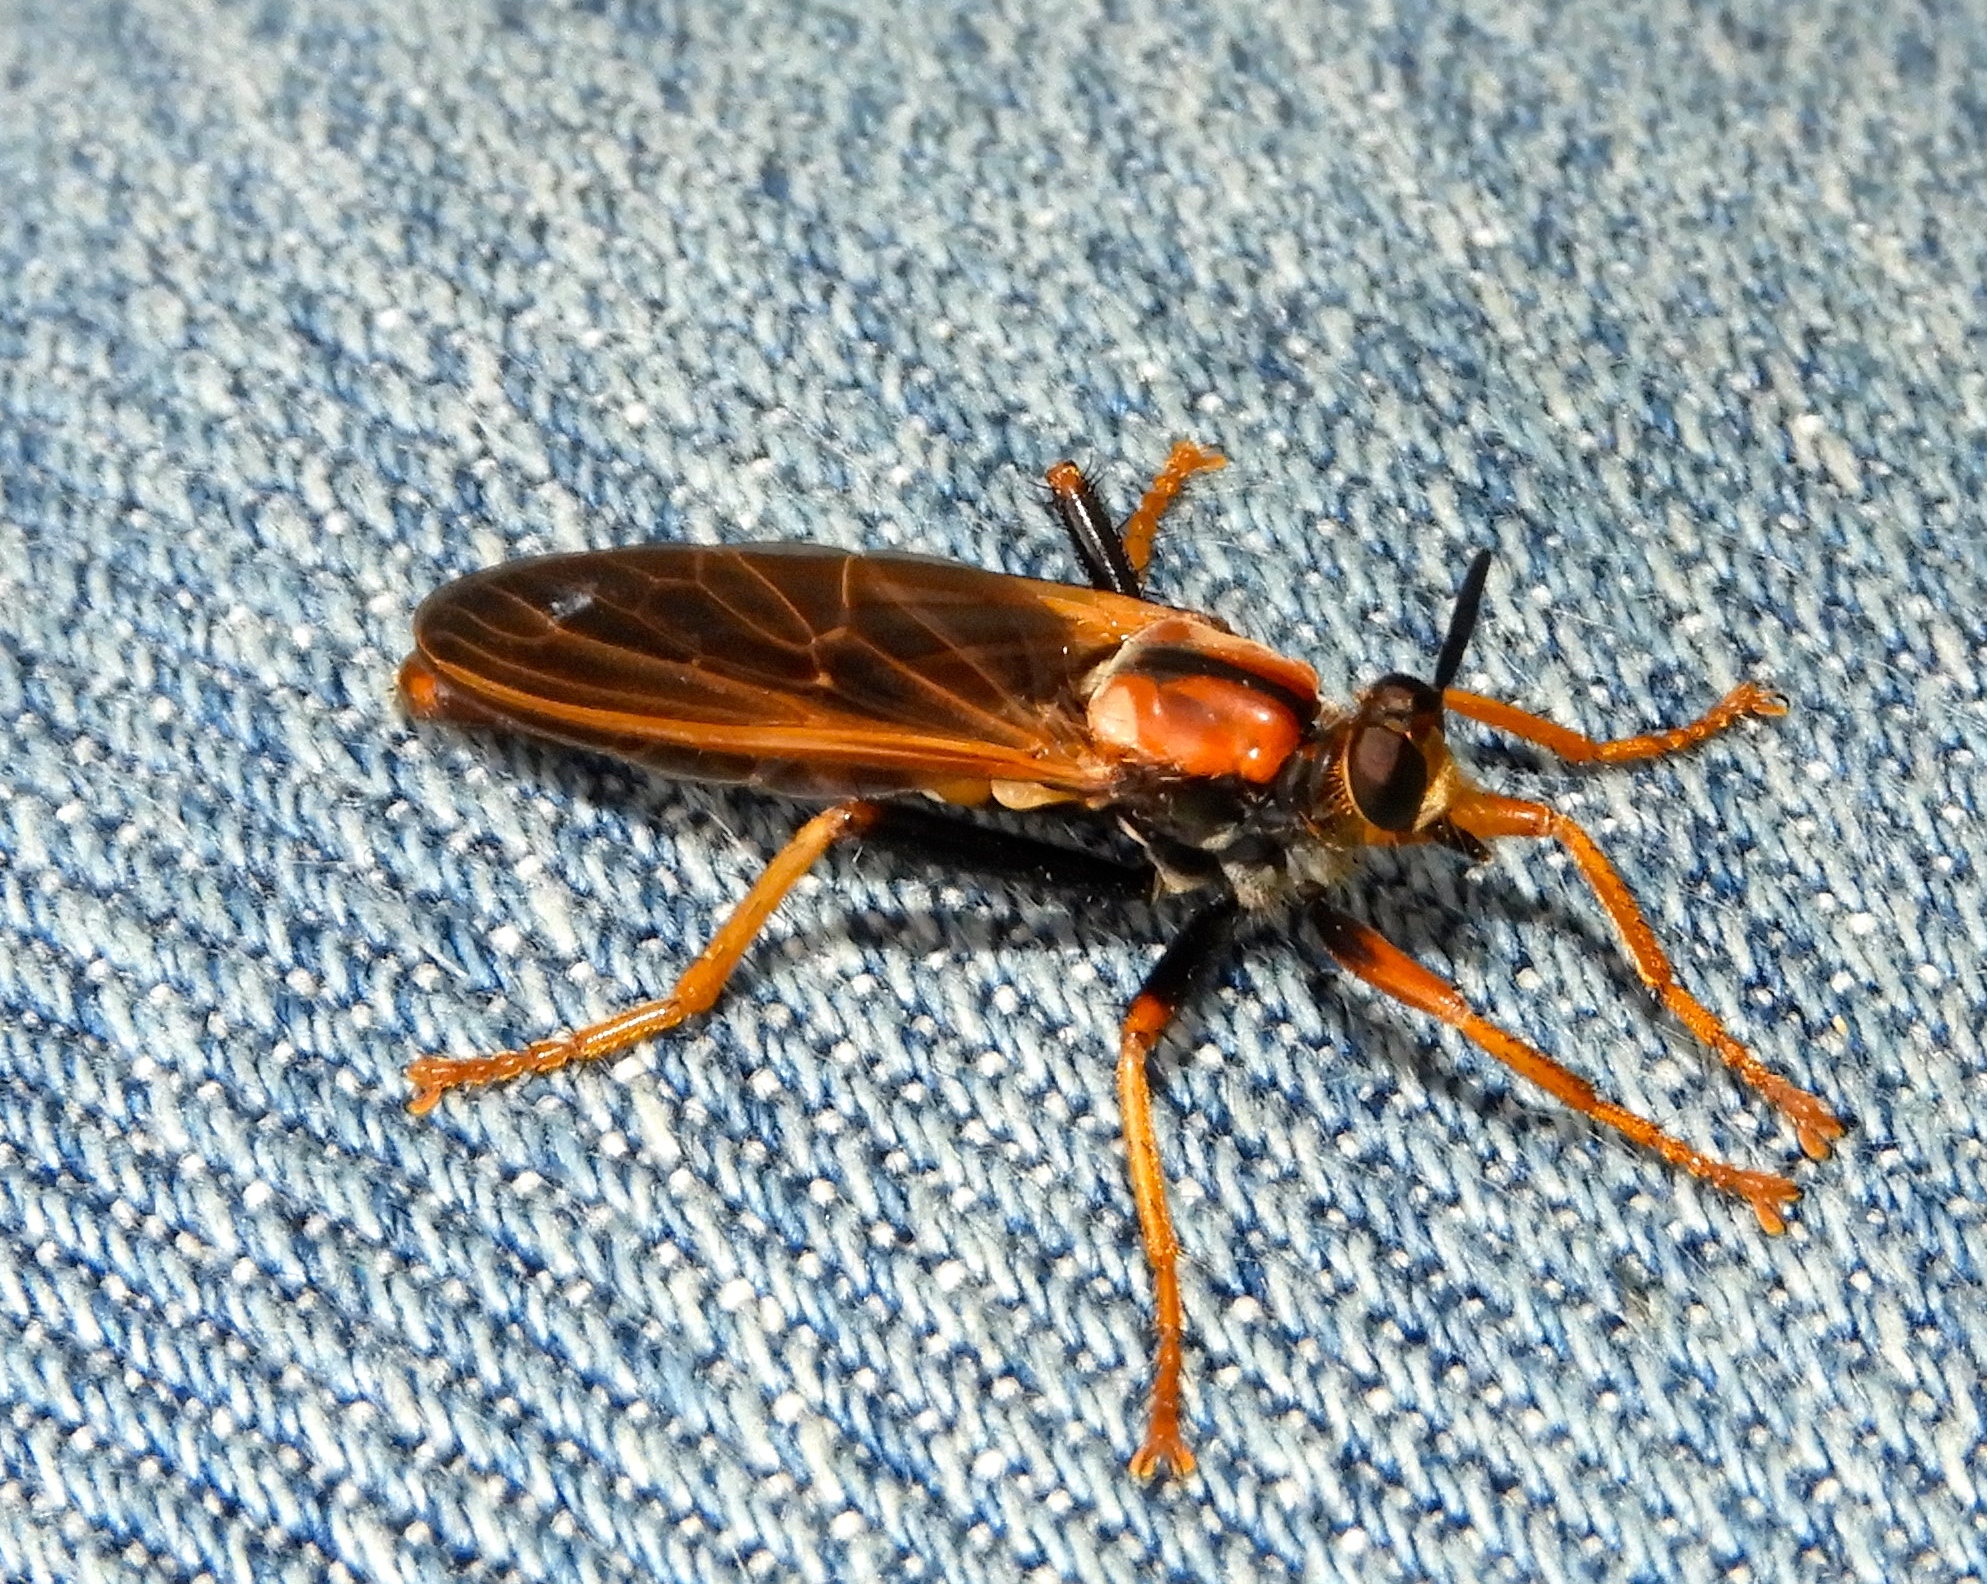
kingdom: Animalia
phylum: Arthropoda
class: Insecta
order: Diptera
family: Asilidae
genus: Stenopogon
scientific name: Stenopogon tequilae
